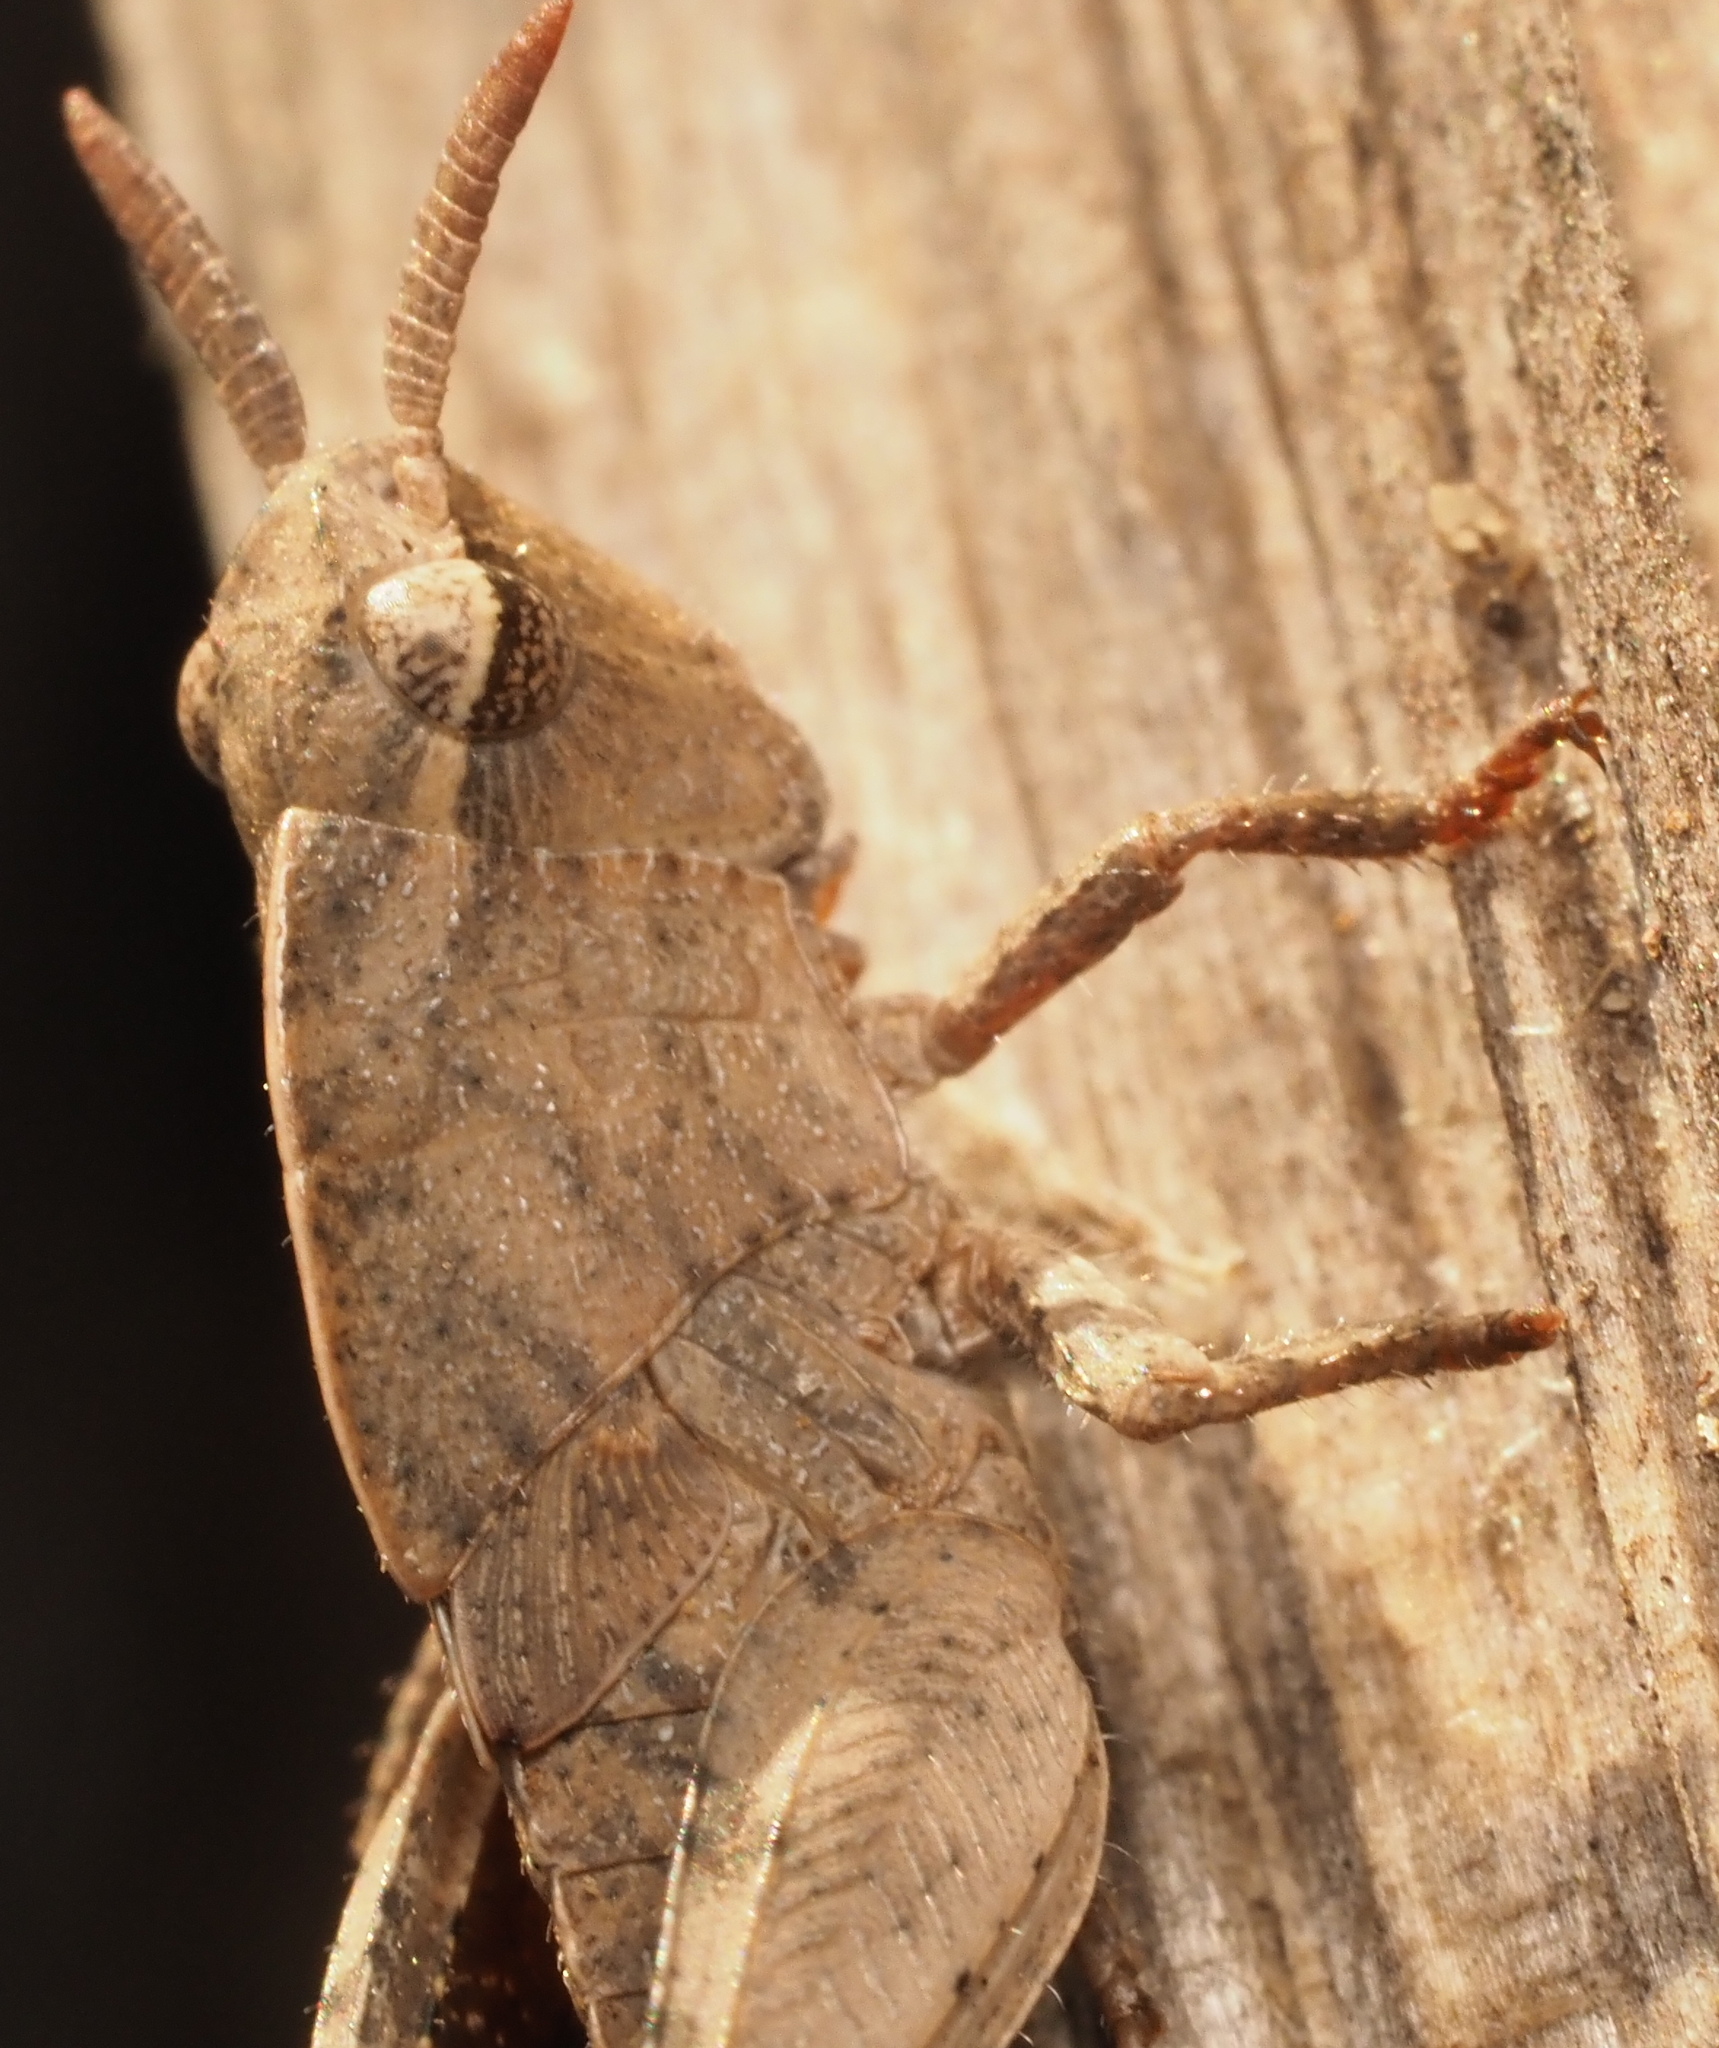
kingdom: Animalia
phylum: Arthropoda
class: Insecta
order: Orthoptera
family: Acrididae
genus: Chortophaga
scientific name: Chortophaga viridifasciata
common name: Green-striped grasshopper
